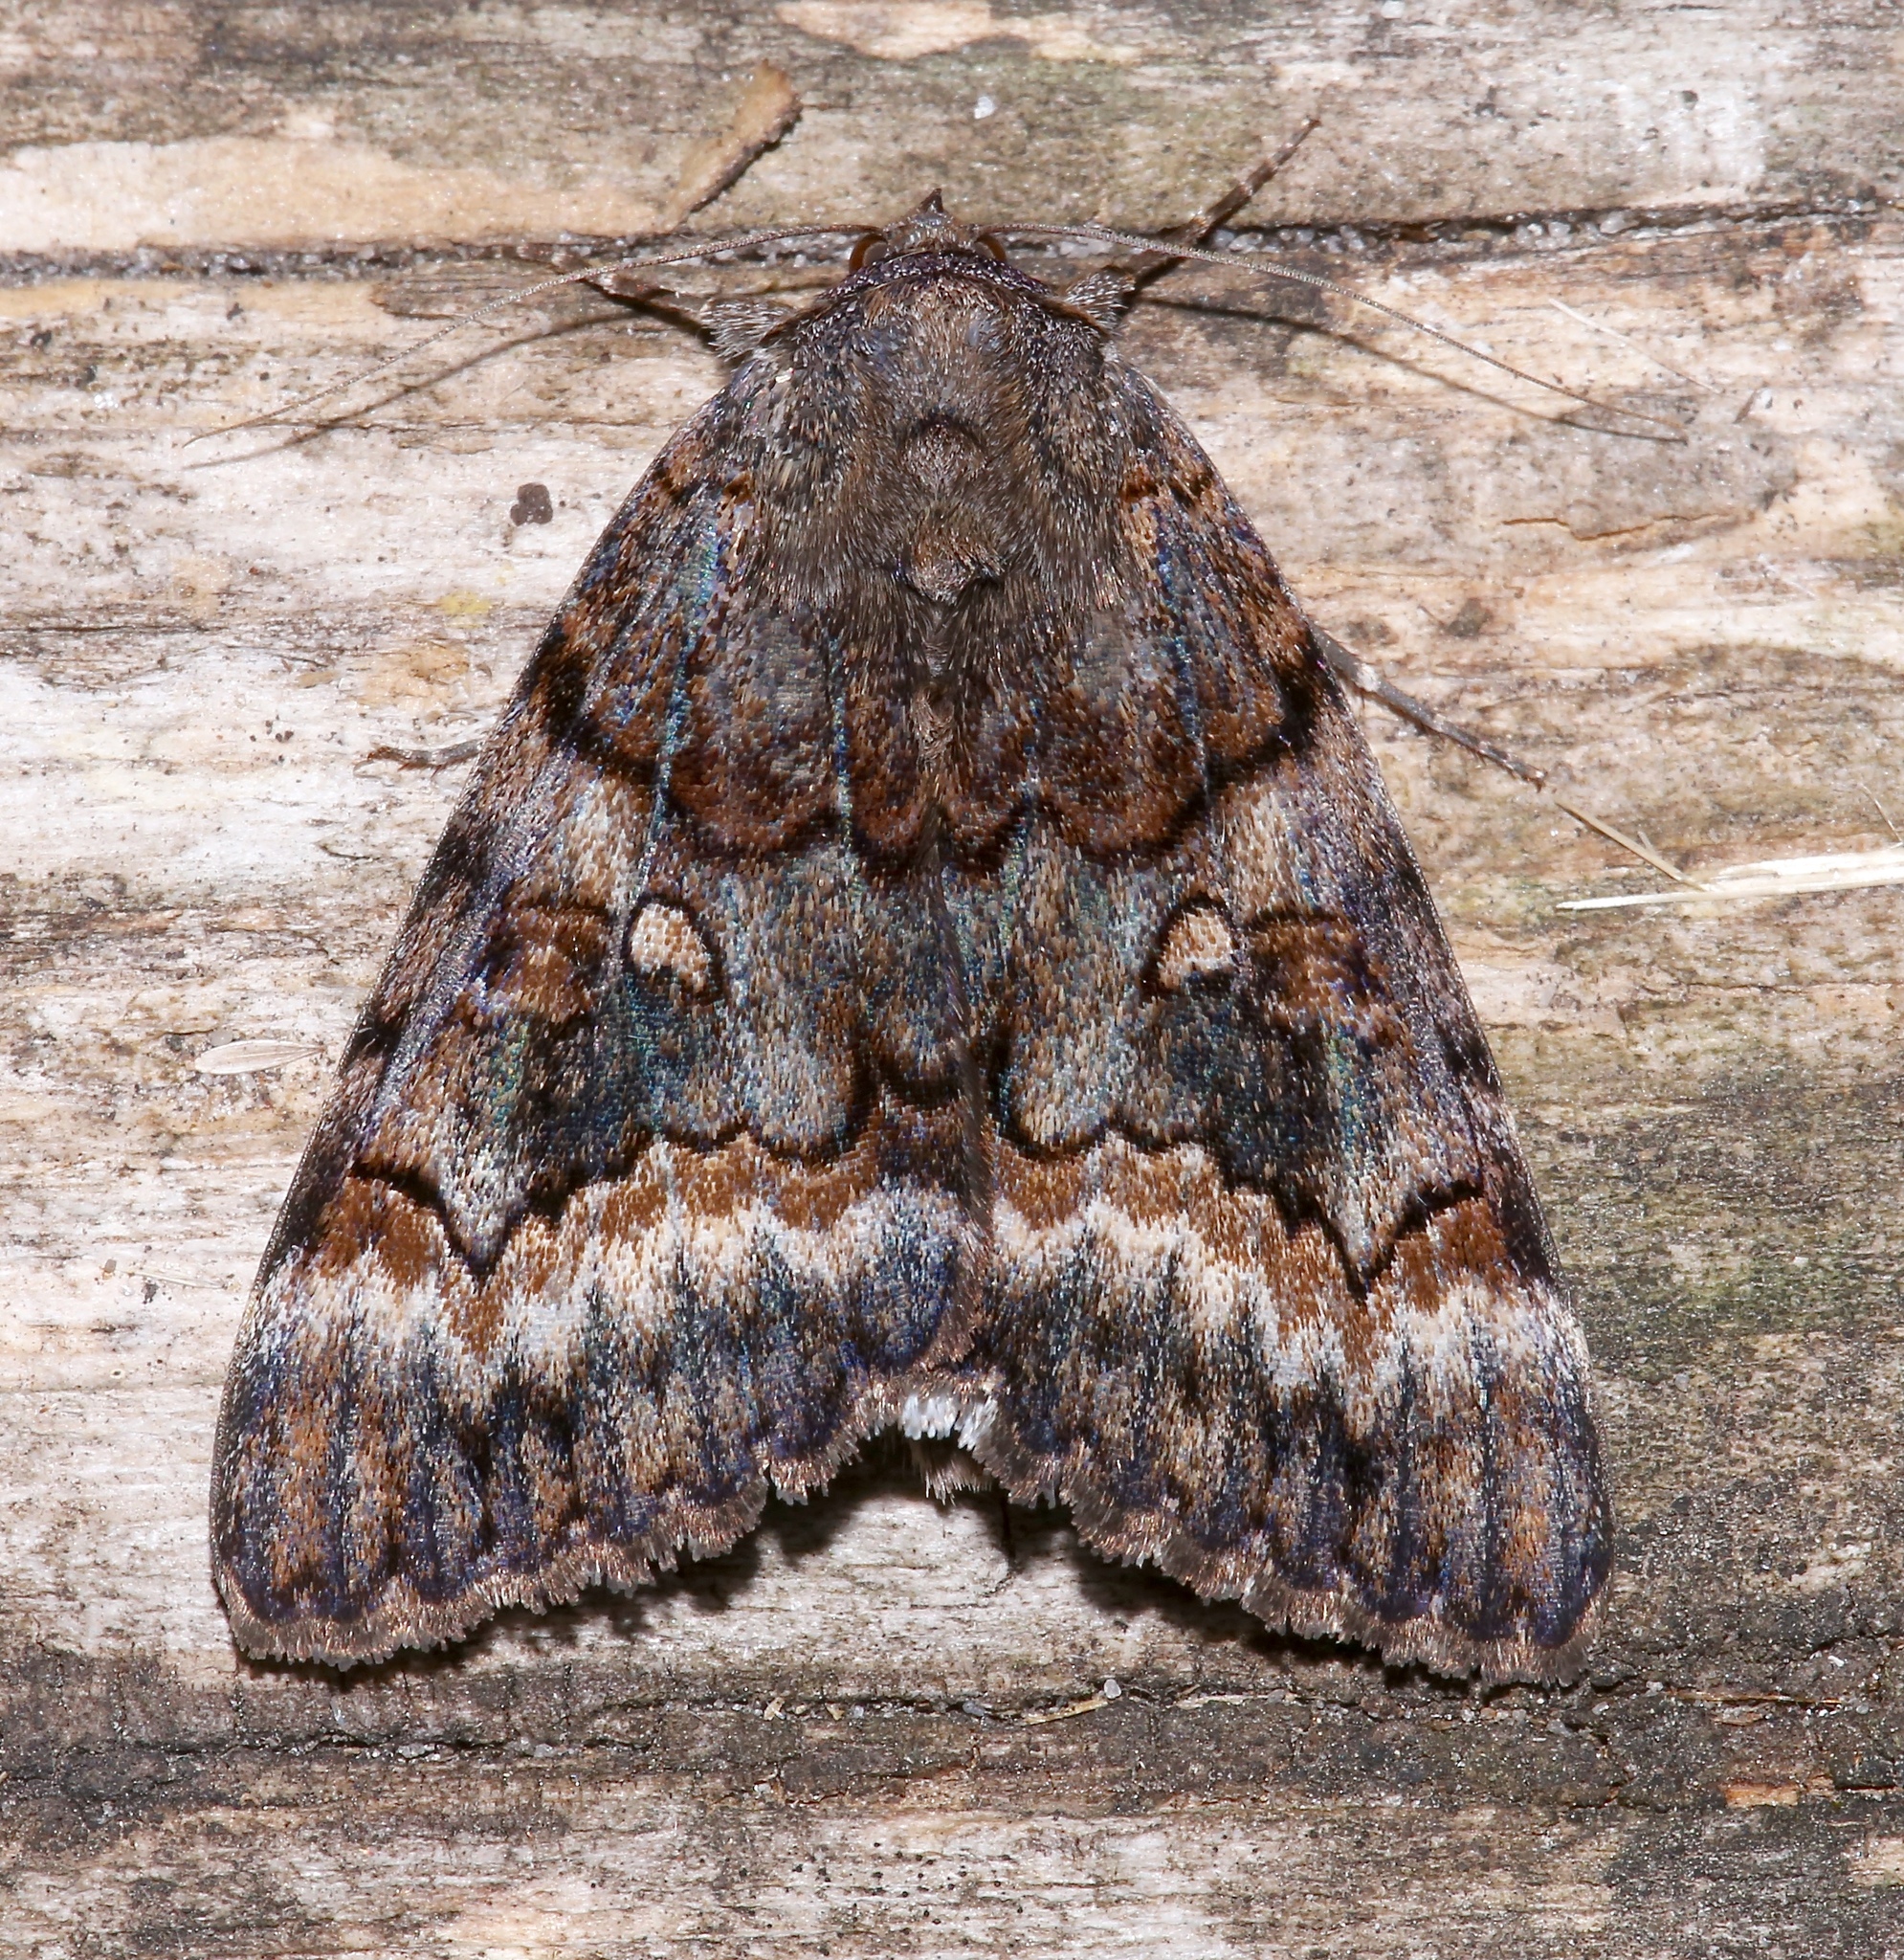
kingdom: Animalia
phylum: Arthropoda
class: Insecta
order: Lepidoptera
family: Erebidae
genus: Catocala
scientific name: Catocala epione
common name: Epione underwing
